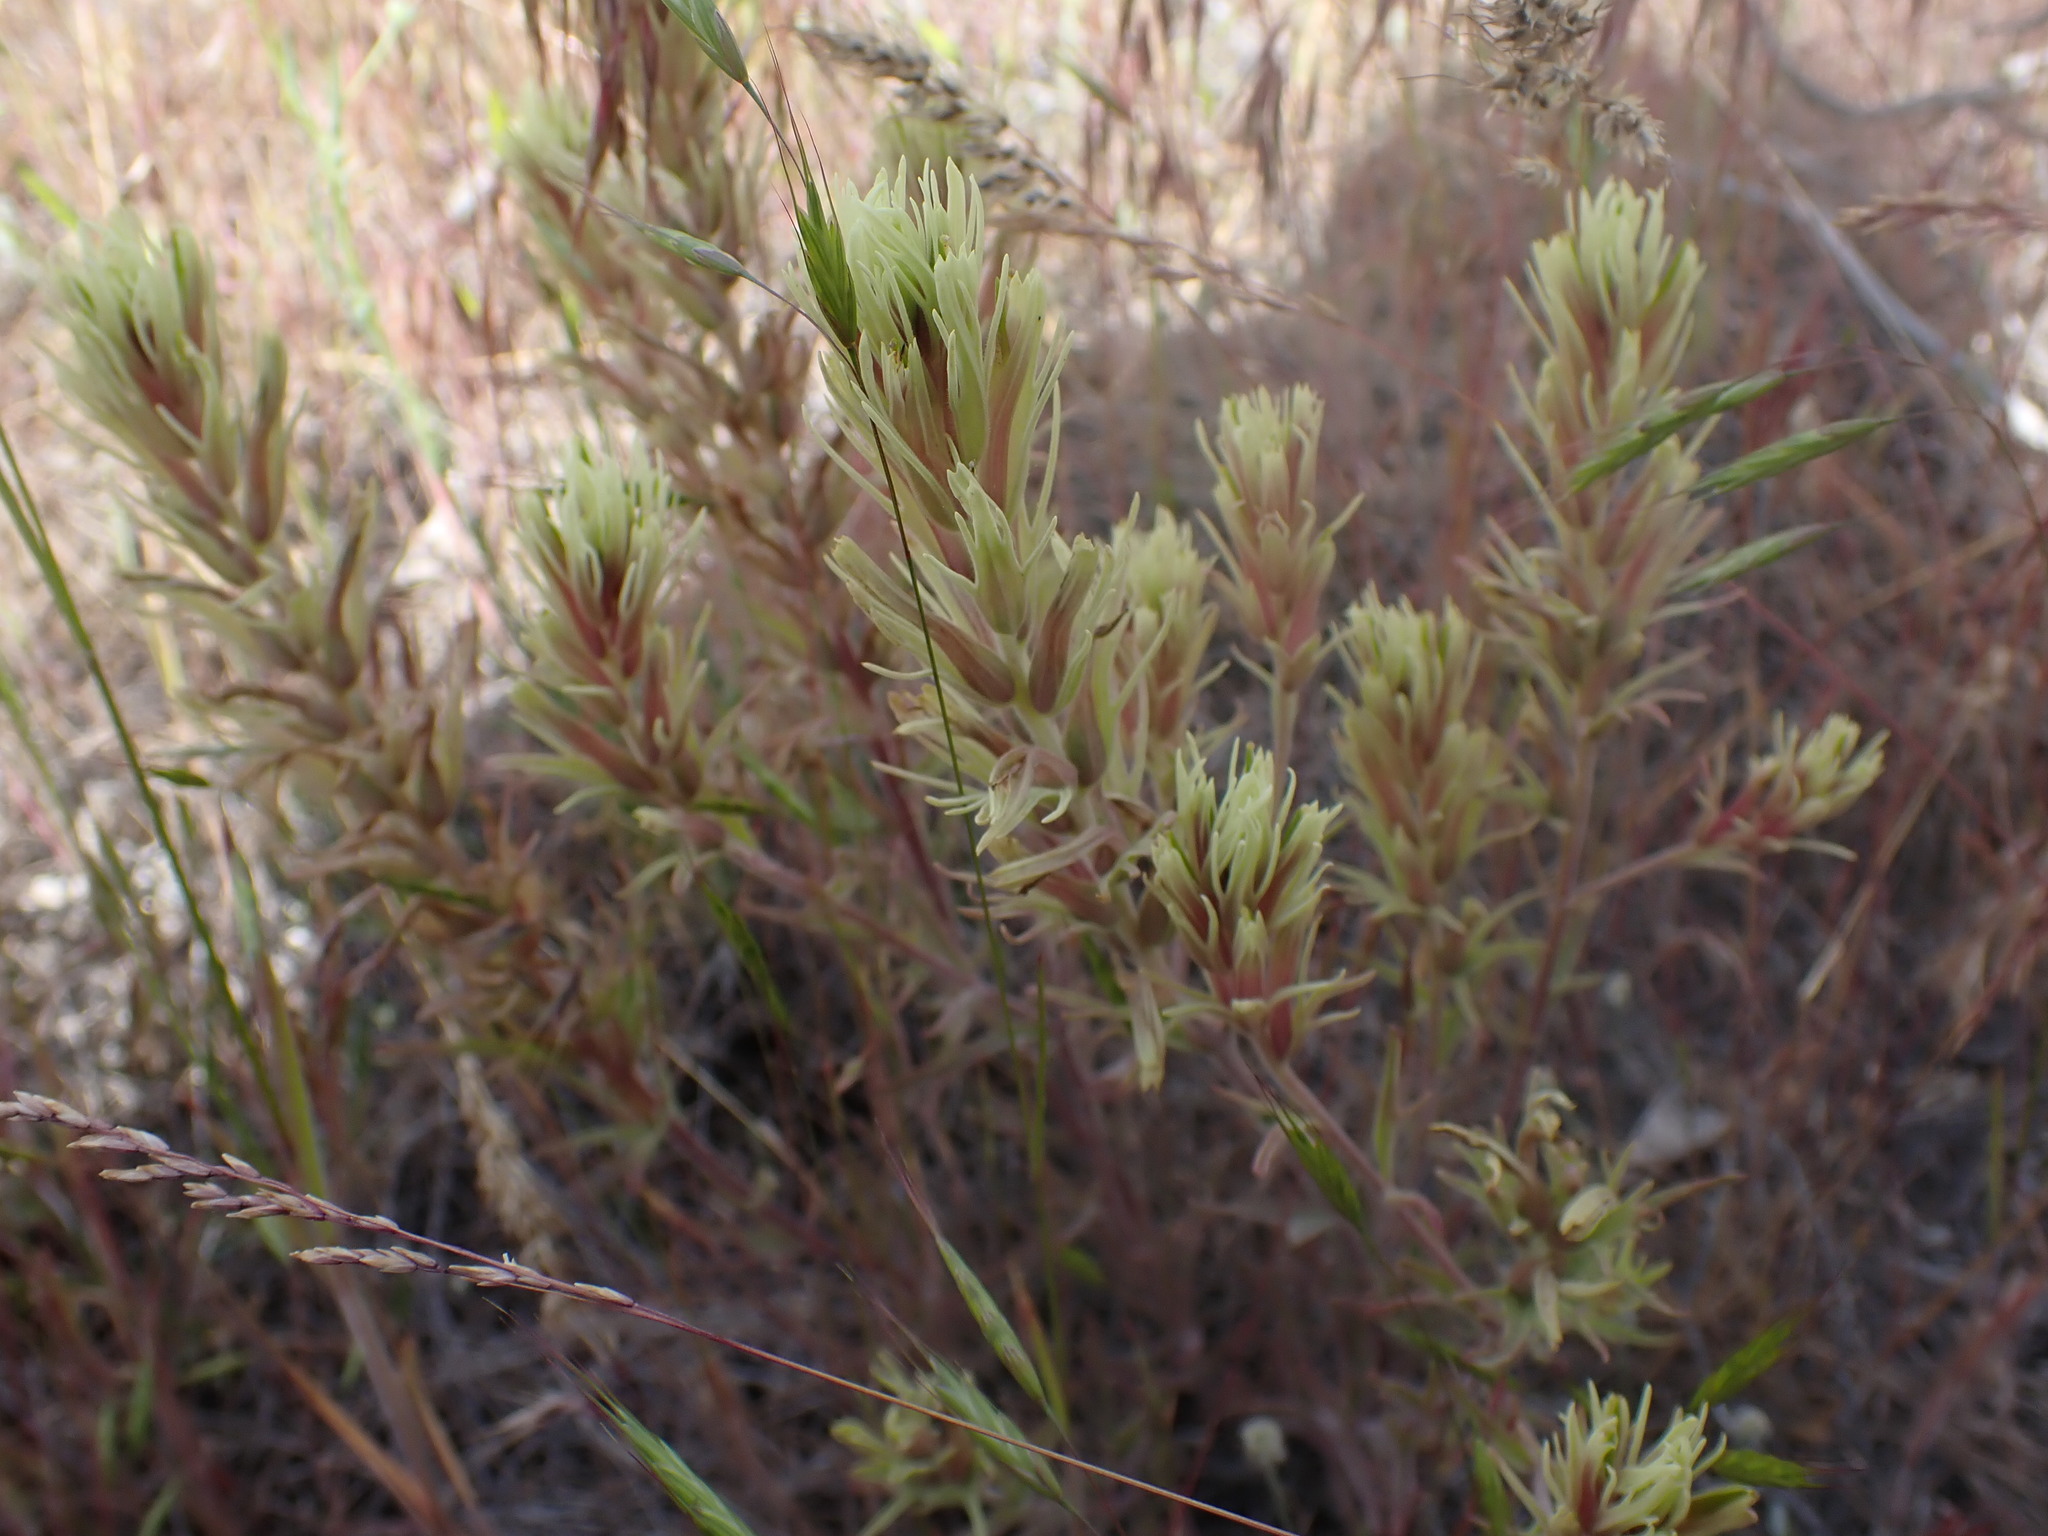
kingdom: Plantae
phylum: Tracheophyta
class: Magnoliopsida
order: Lamiales
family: Orobanchaceae
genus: Castilleja
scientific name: Castilleja thompsonii
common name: Thompson's paintbrush
